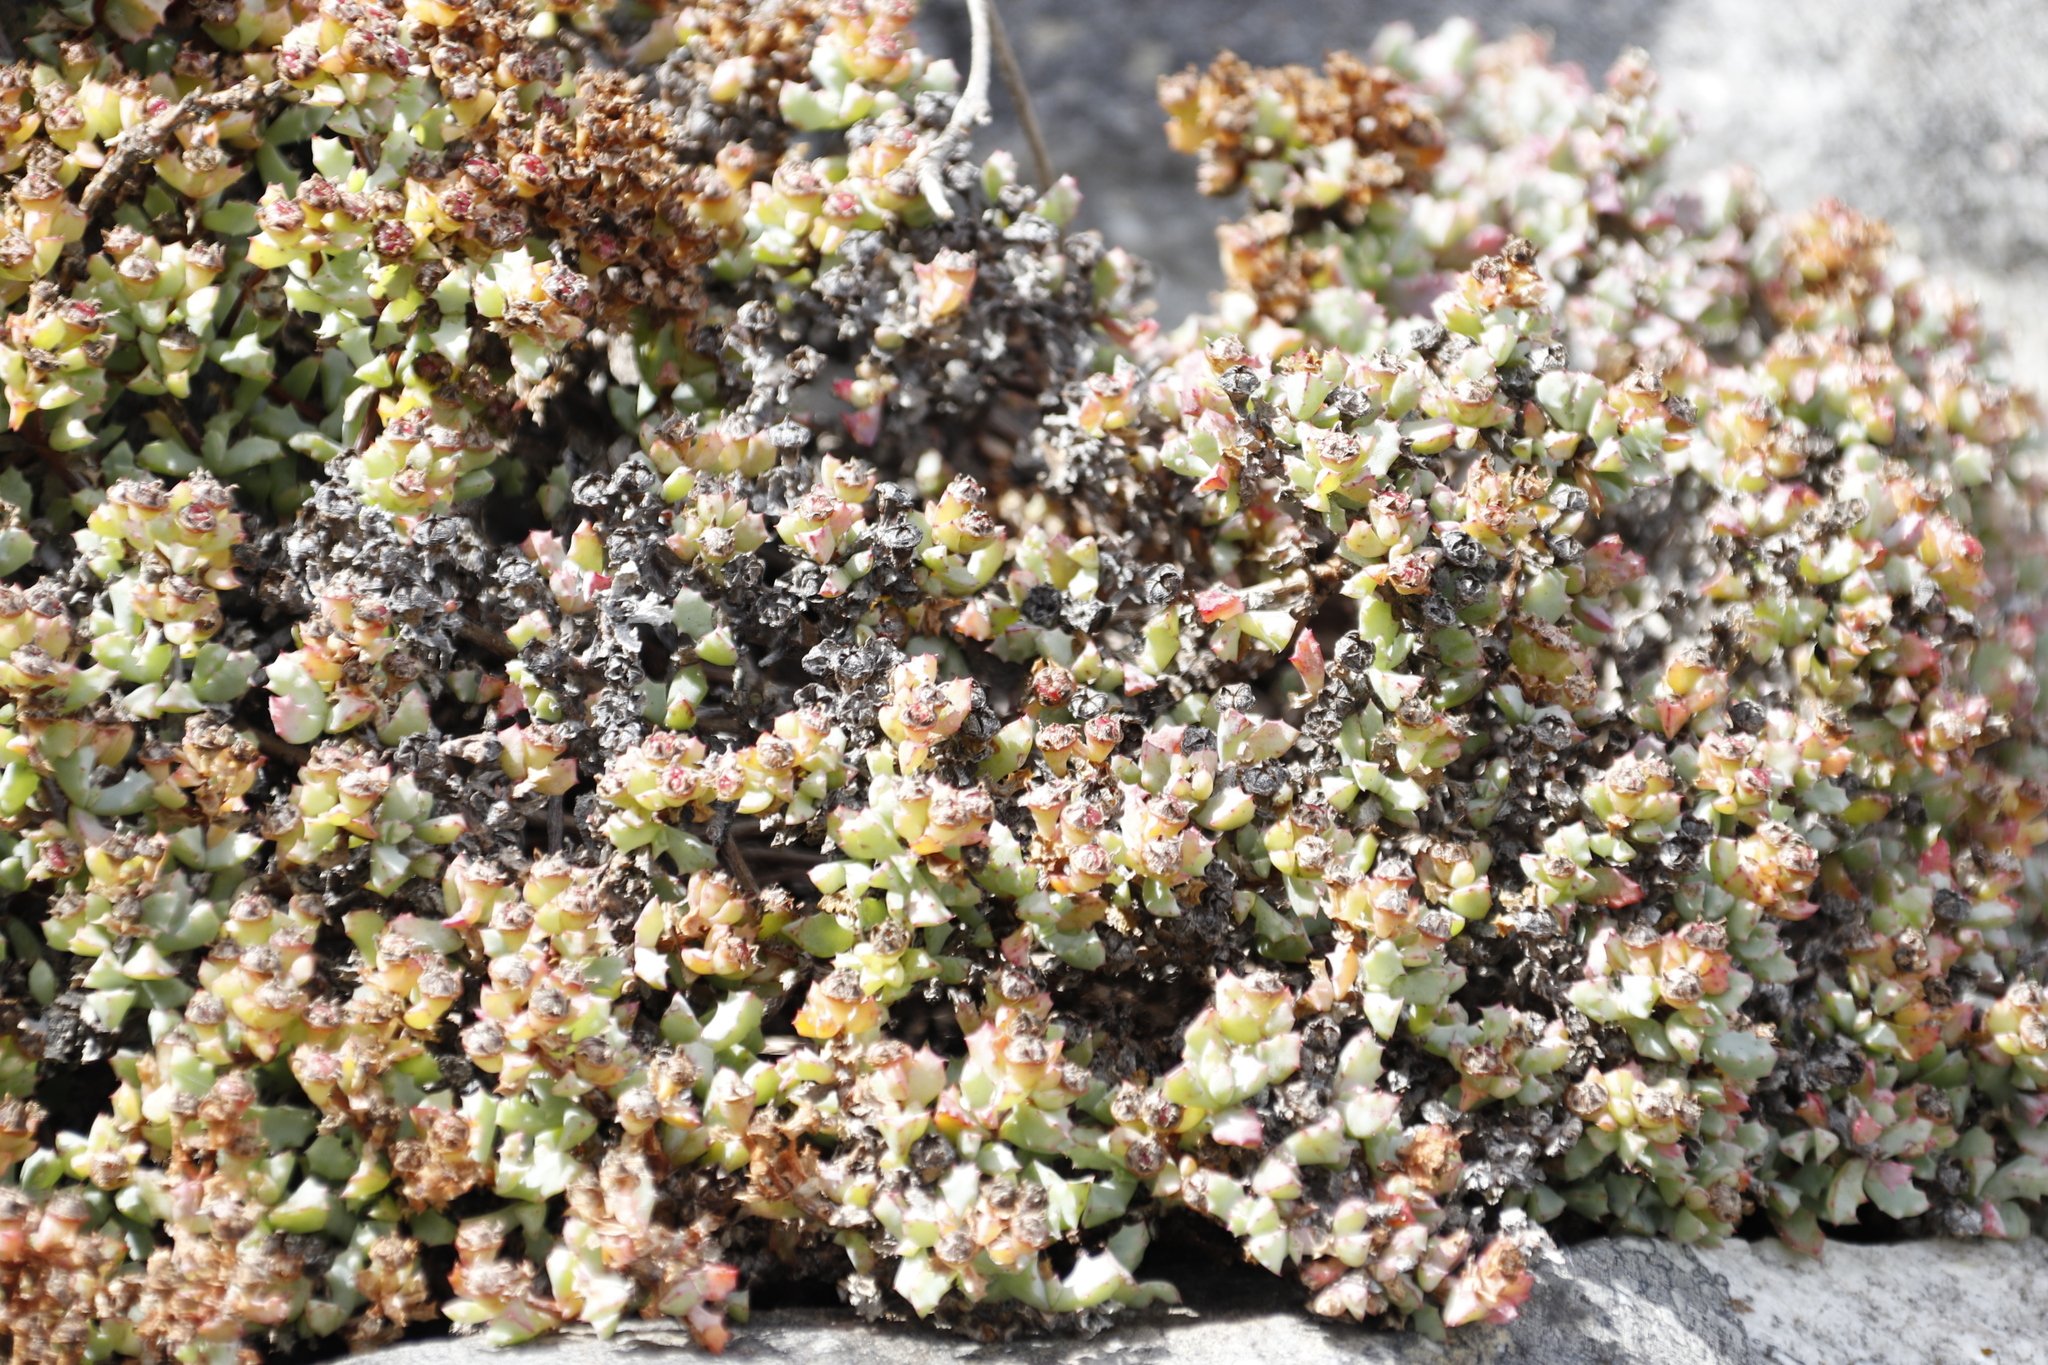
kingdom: Plantae
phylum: Tracheophyta
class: Magnoliopsida
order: Caryophyllales
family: Aizoaceae
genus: Oscularia
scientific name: Oscularia deltoides
